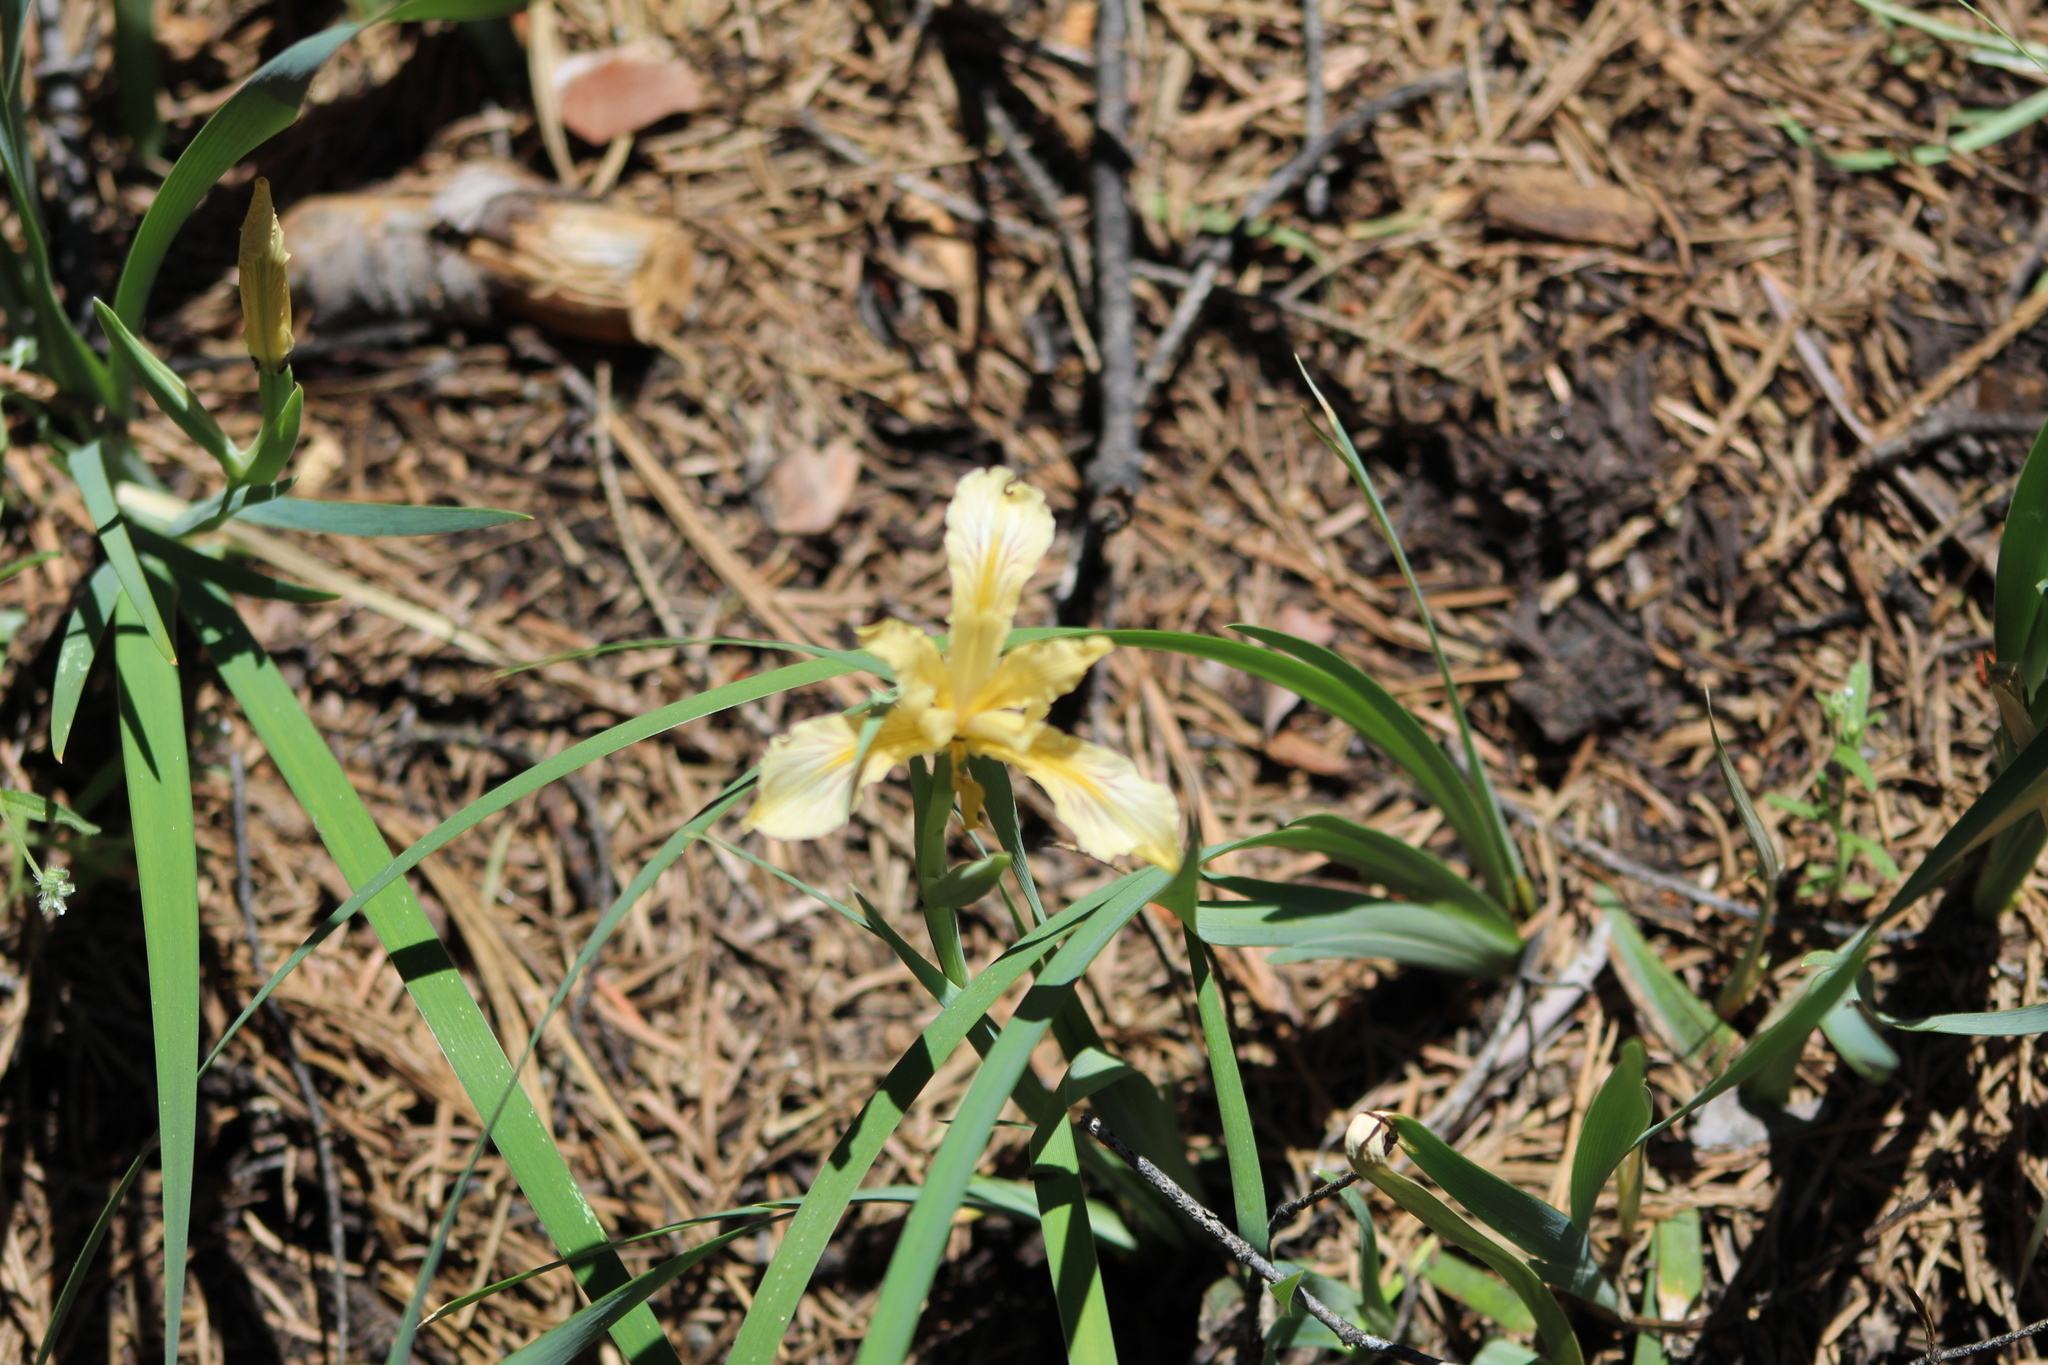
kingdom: Plantae
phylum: Tracheophyta
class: Liliopsida
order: Asparagales
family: Iridaceae
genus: Iris
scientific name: Iris hartwegii
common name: Sierra iris
